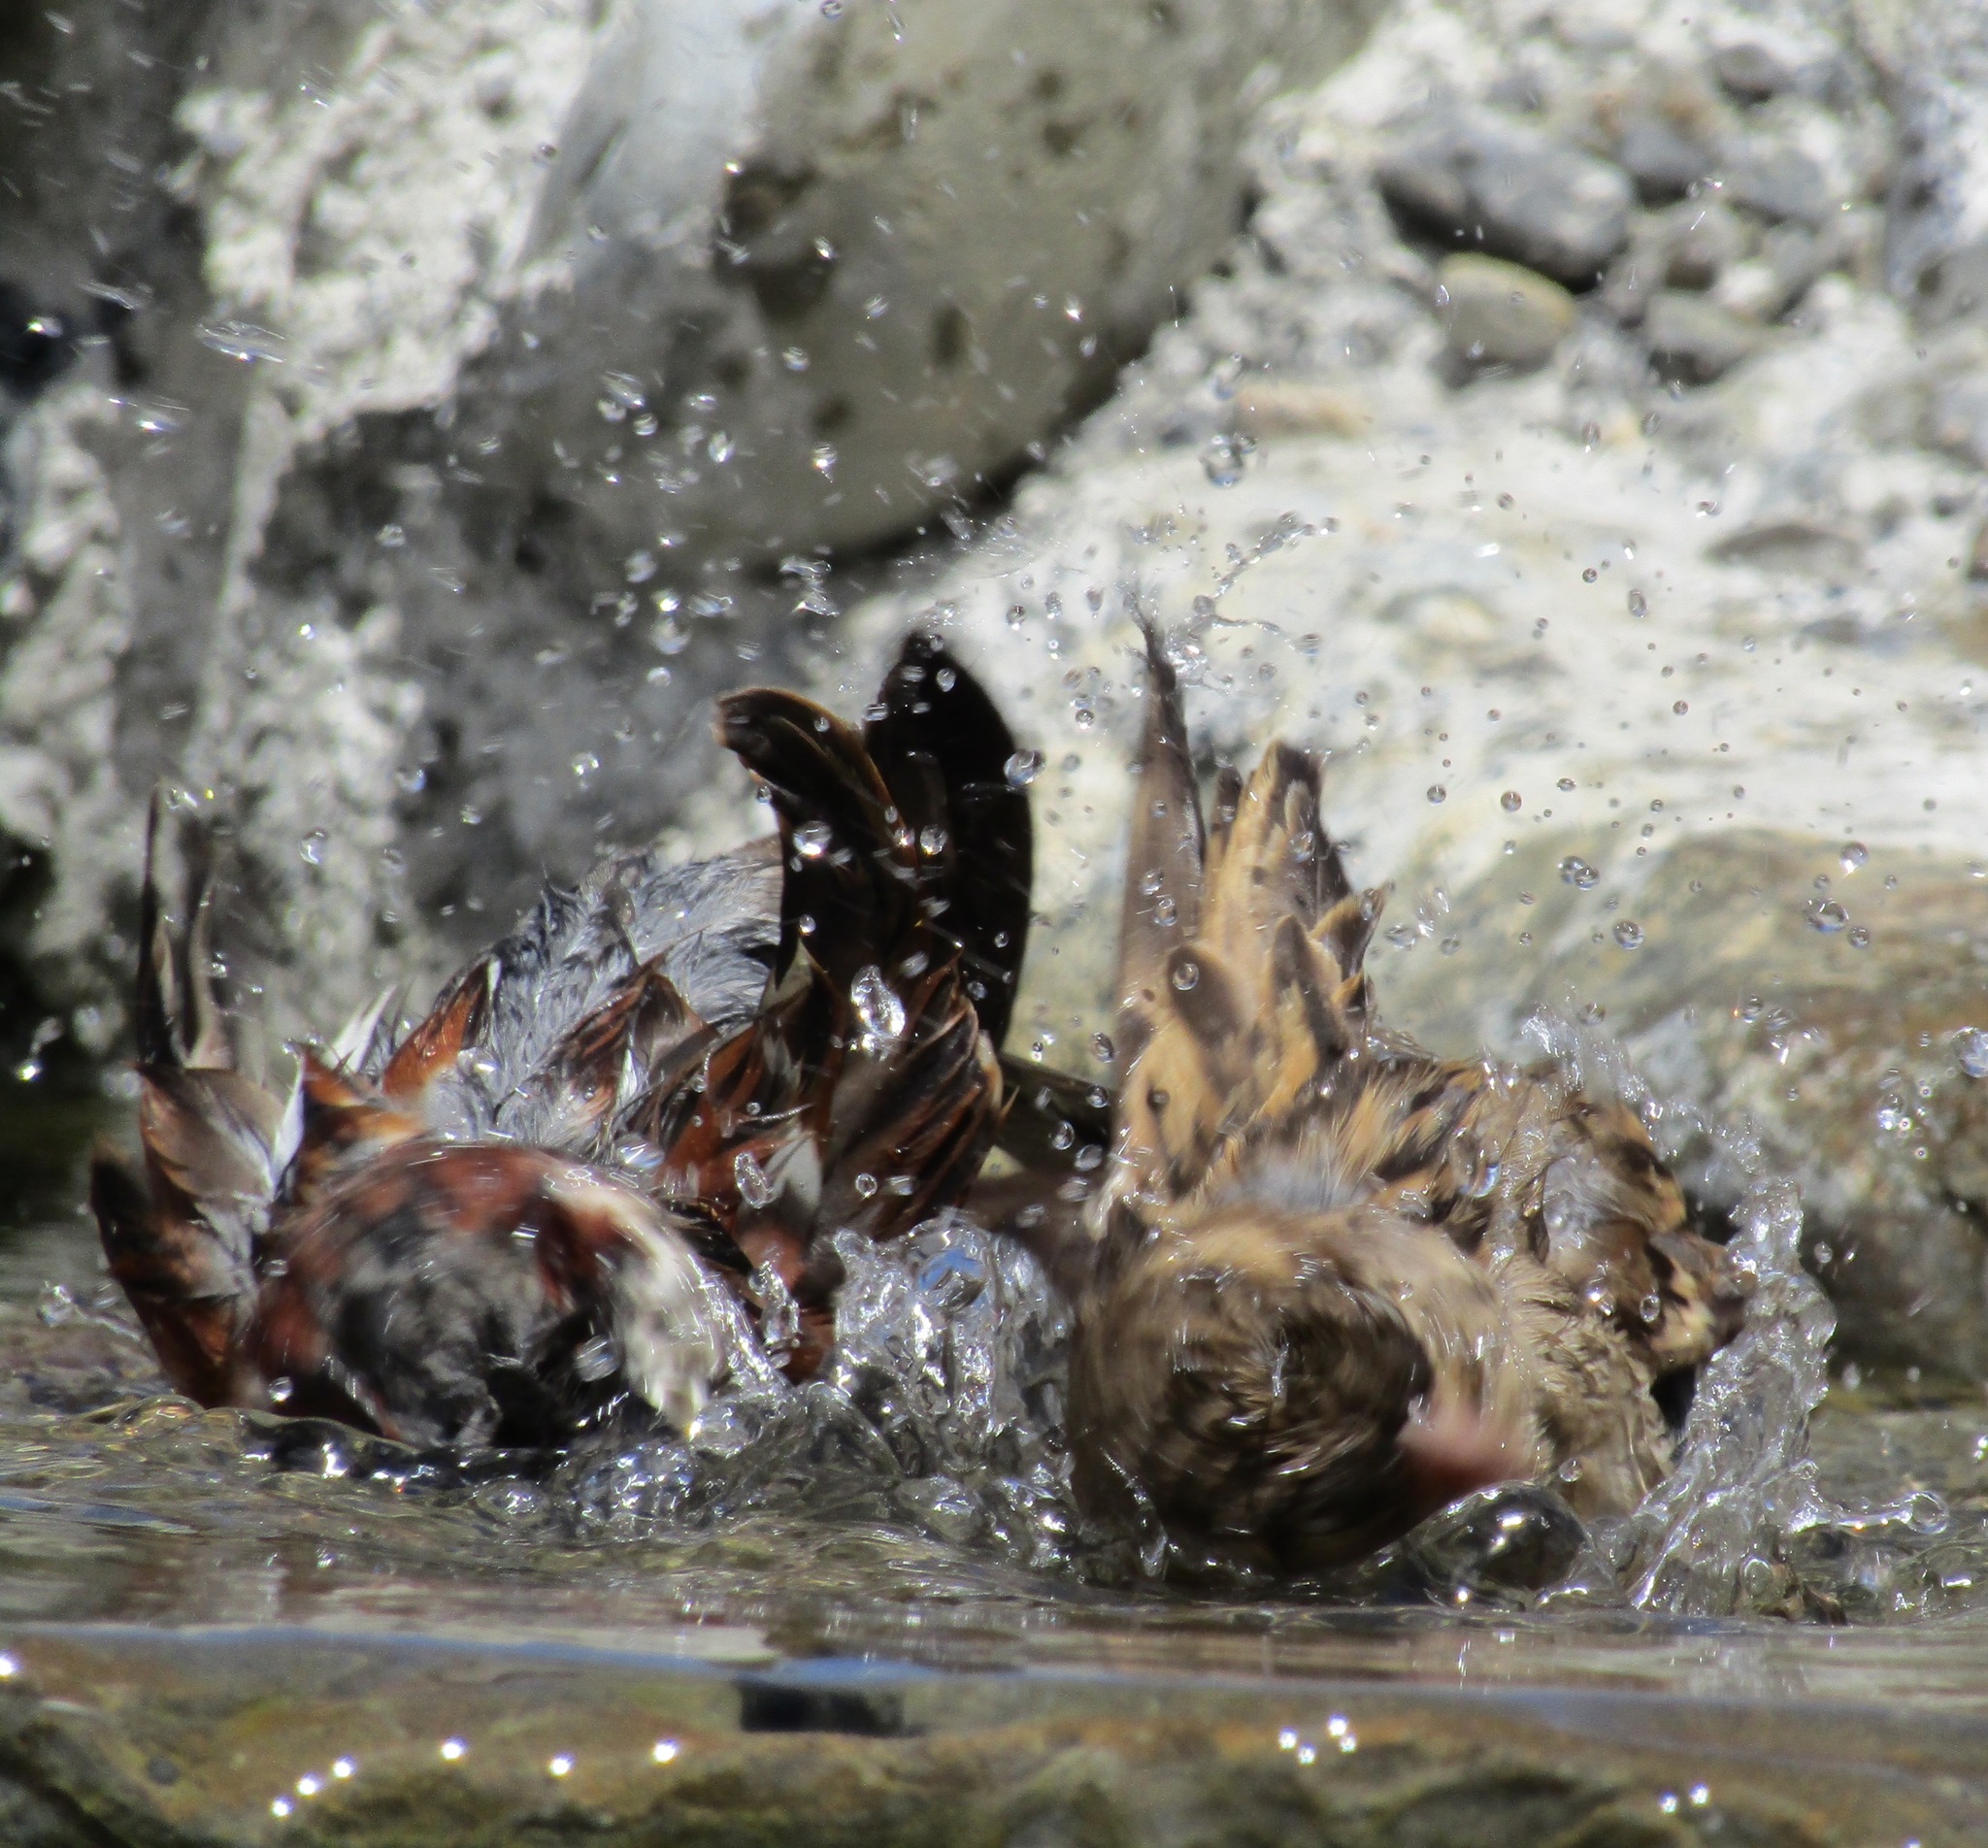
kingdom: Animalia
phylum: Chordata
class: Aves
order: Passeriformes
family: Passeridae
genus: Passer
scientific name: Passer domesticus
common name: House sparrow
